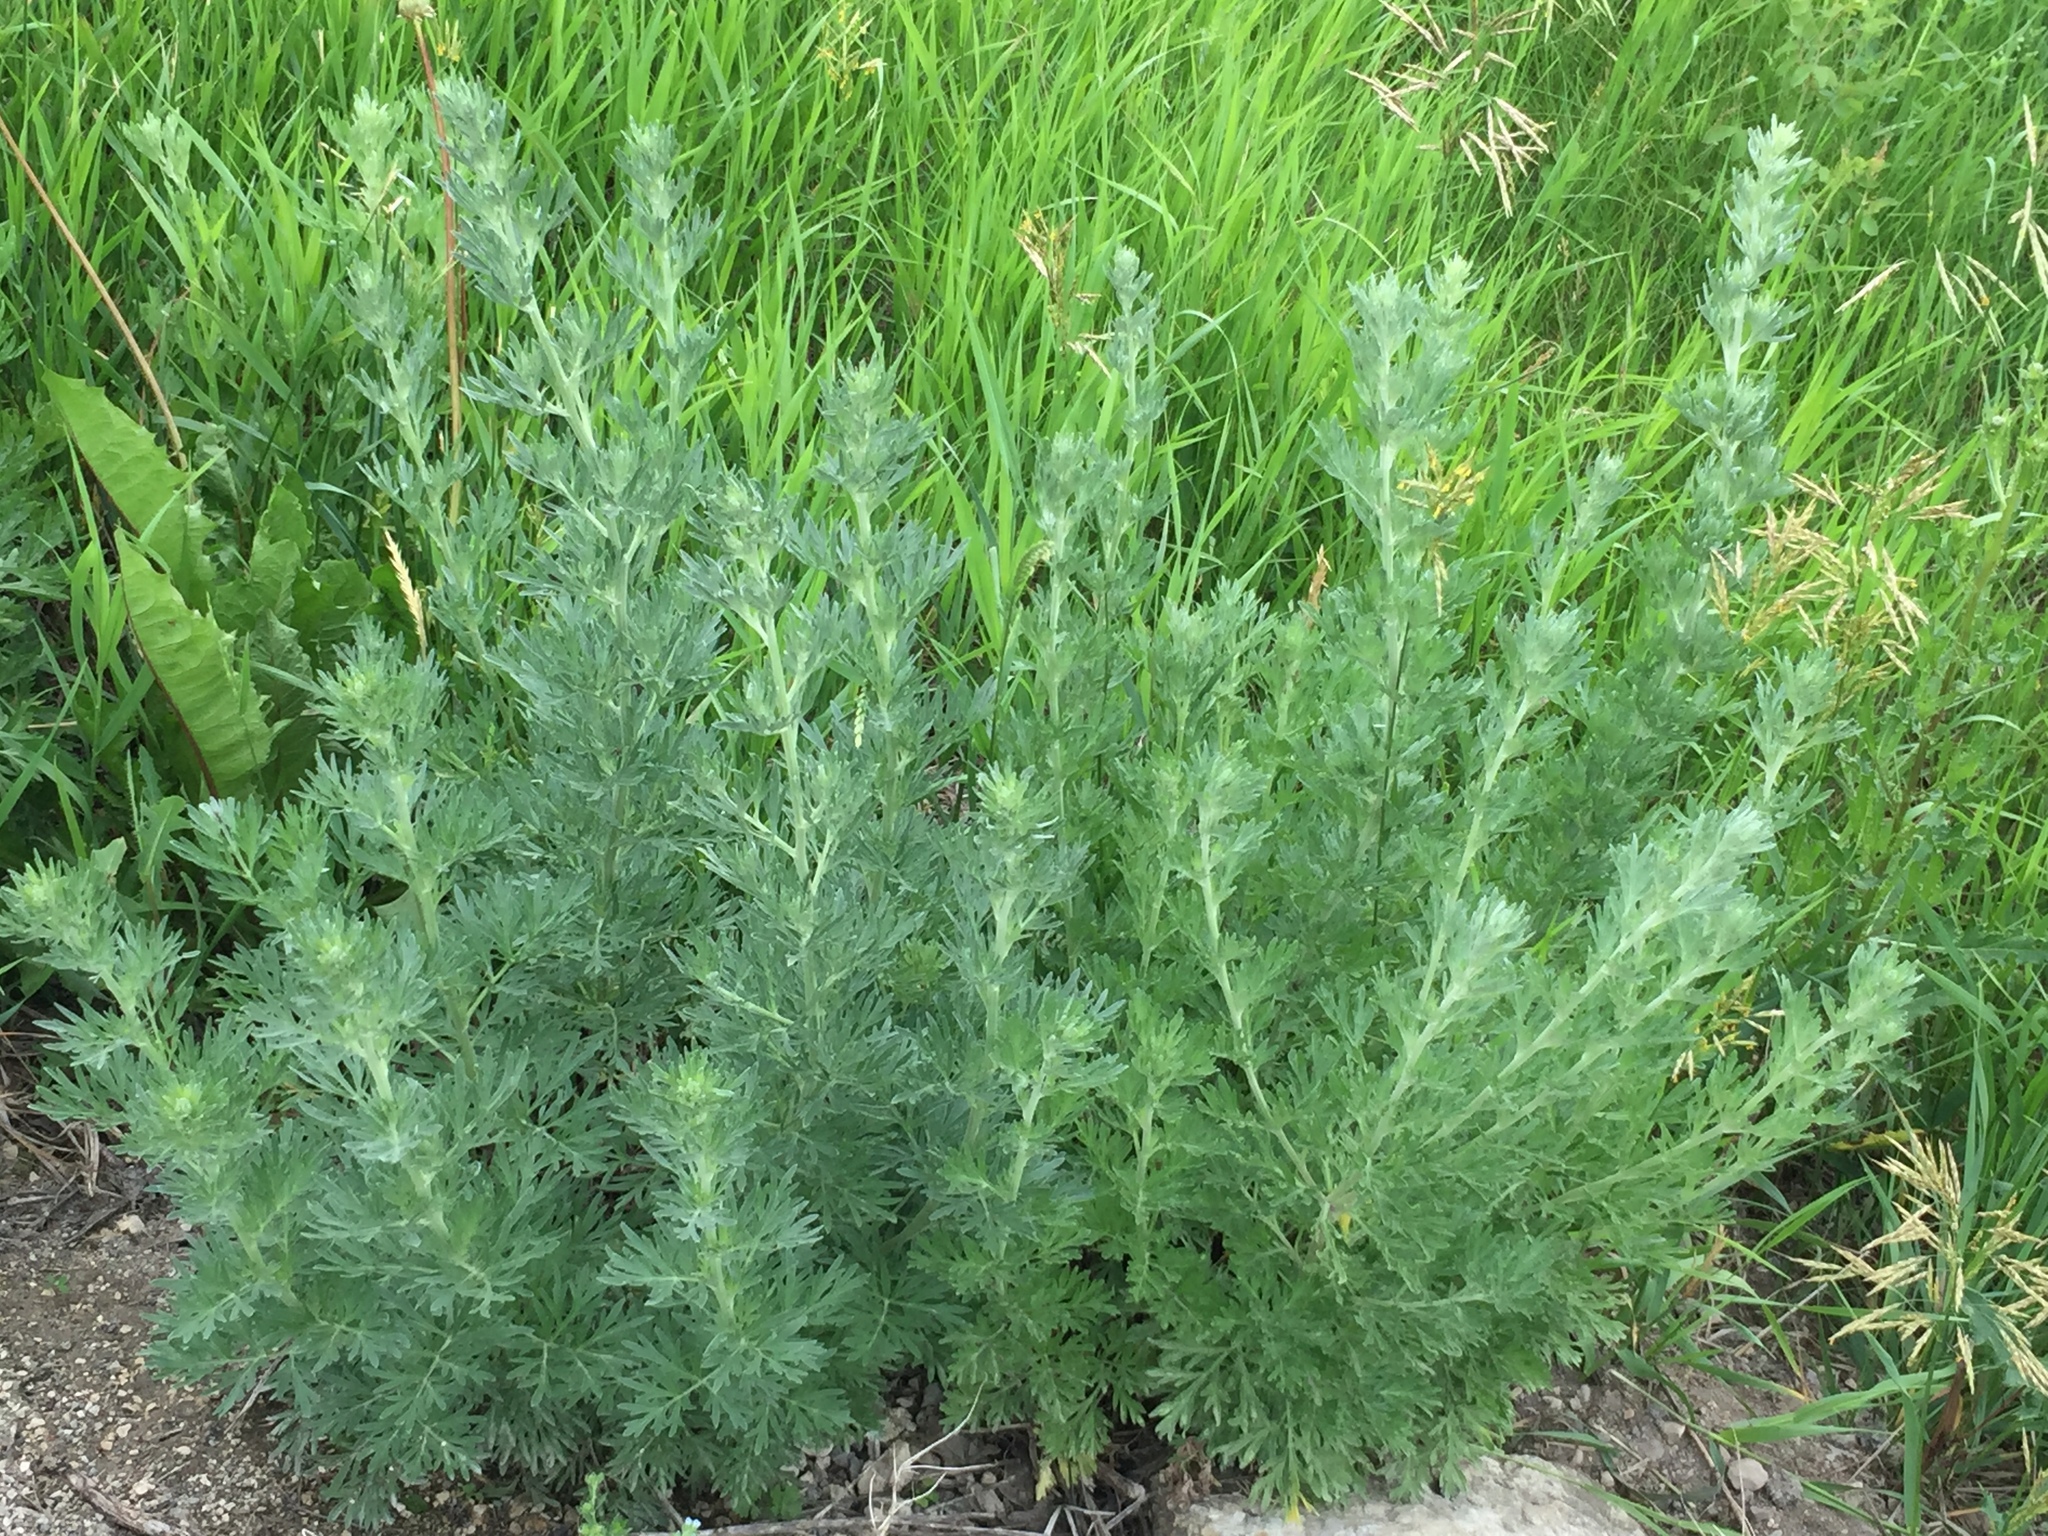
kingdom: Plantae
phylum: Tracheophyta
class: Magnoliopsida
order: Asterales
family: Asteraceae
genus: Artemisia
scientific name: Artemisia absinthium
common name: Wormwood
